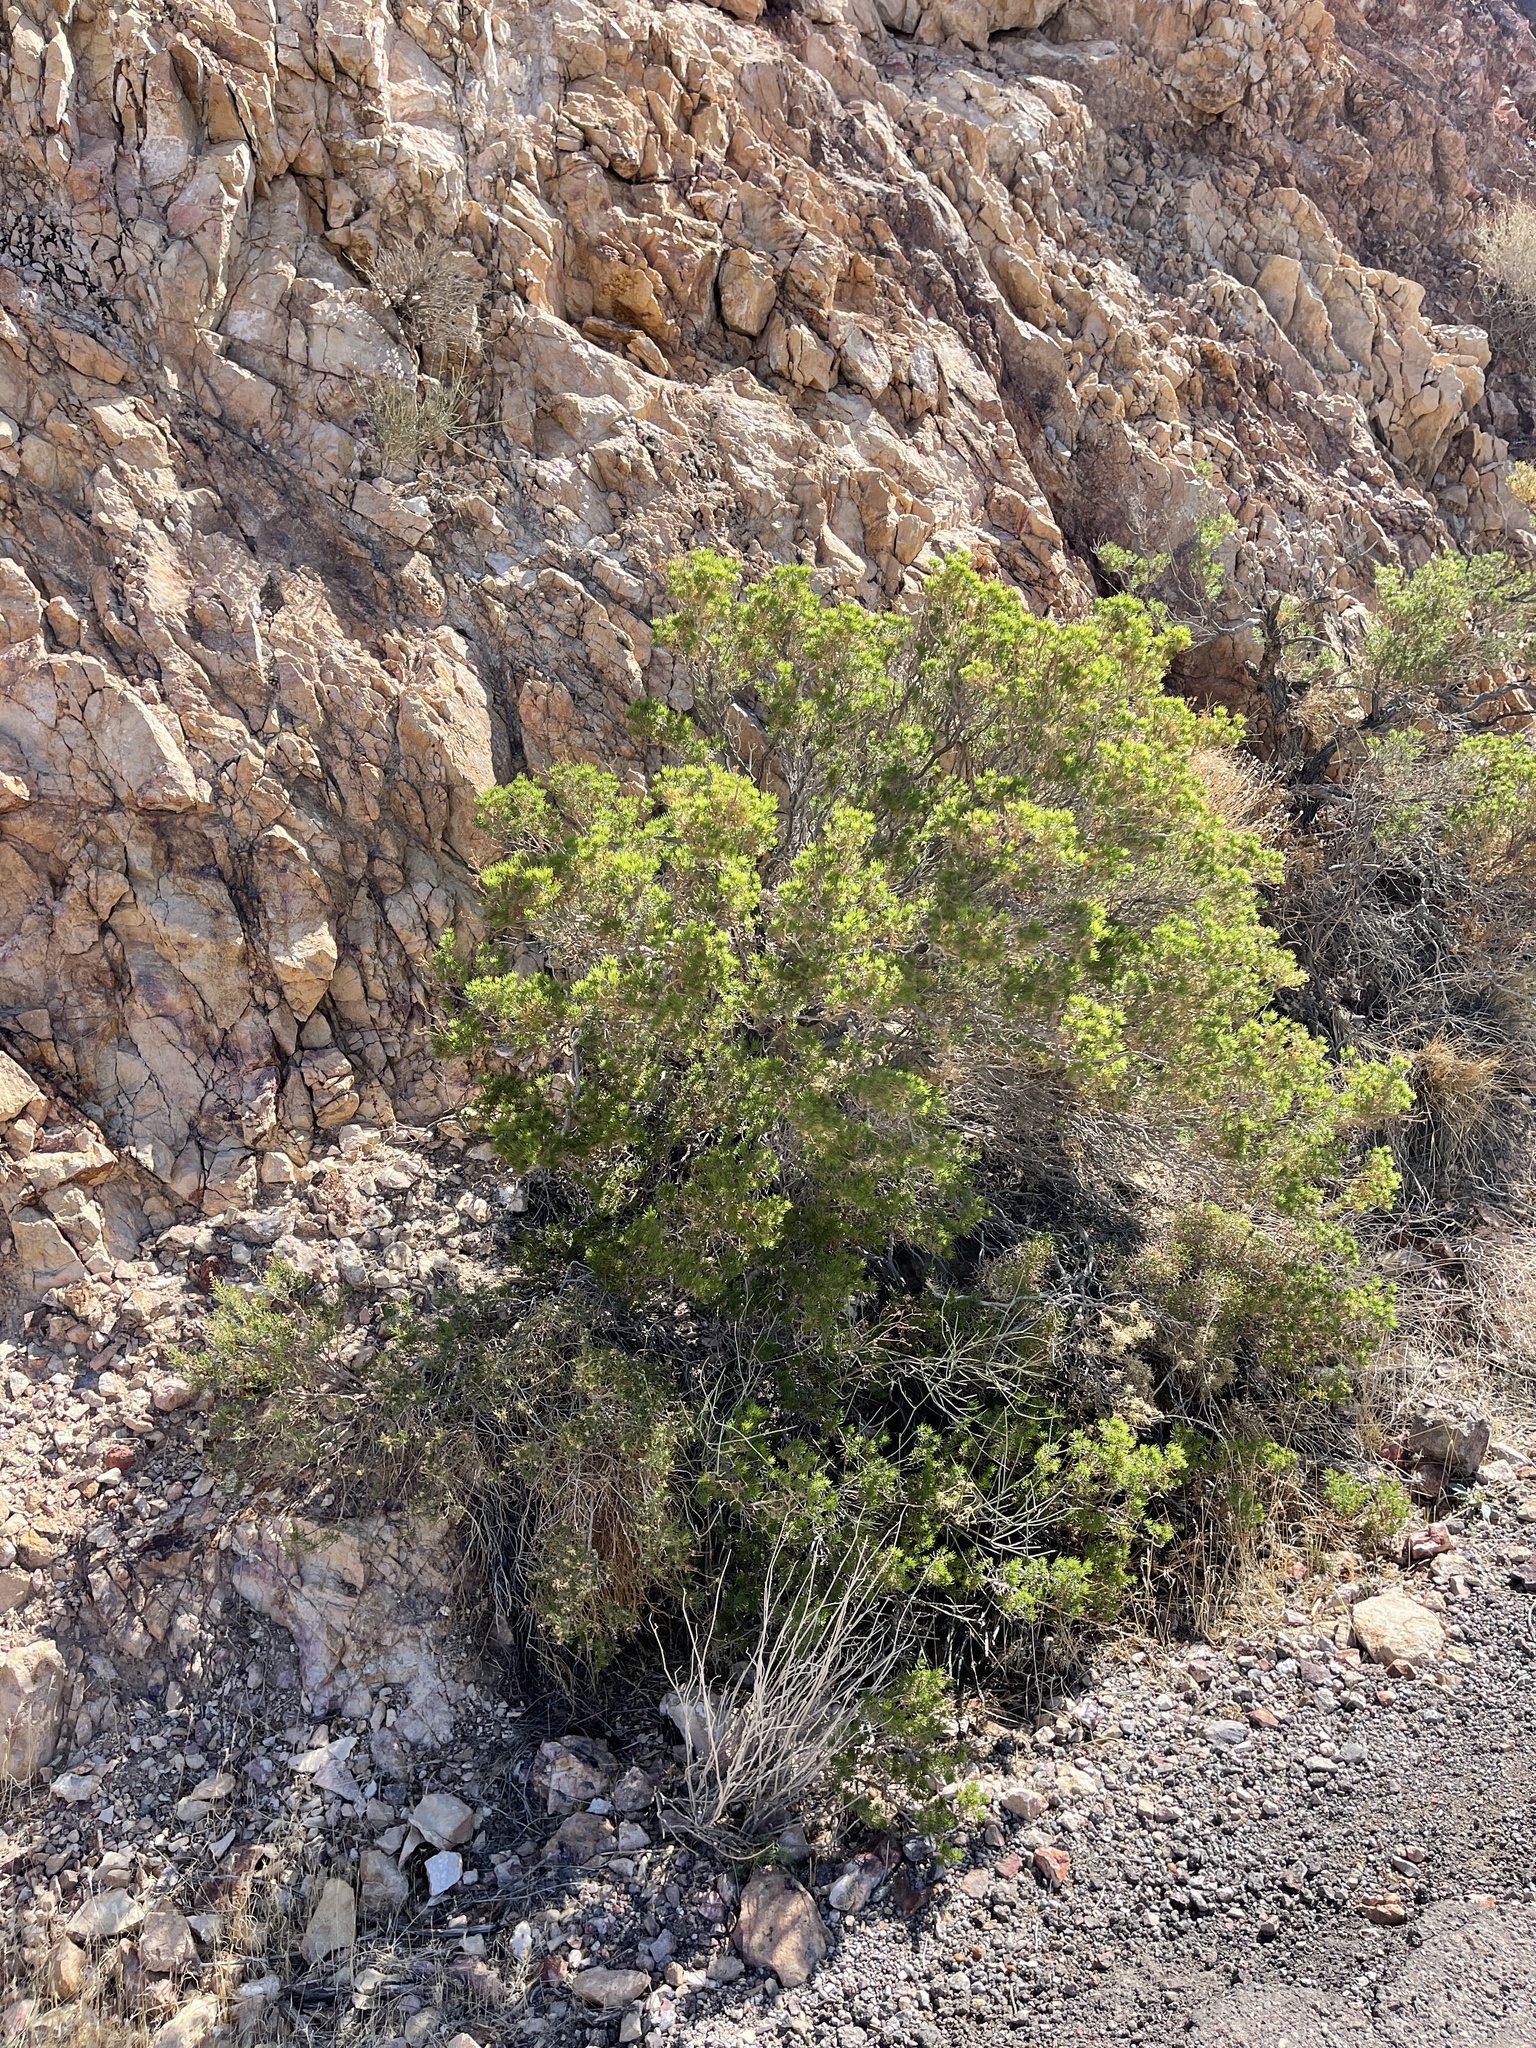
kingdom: Plantae
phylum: Tracheophyta
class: Magnoliopsida
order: Asterales
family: Asteraceae
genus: Peucephyllum
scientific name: Peucephyllum schottii
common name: Pygmy-cedar
